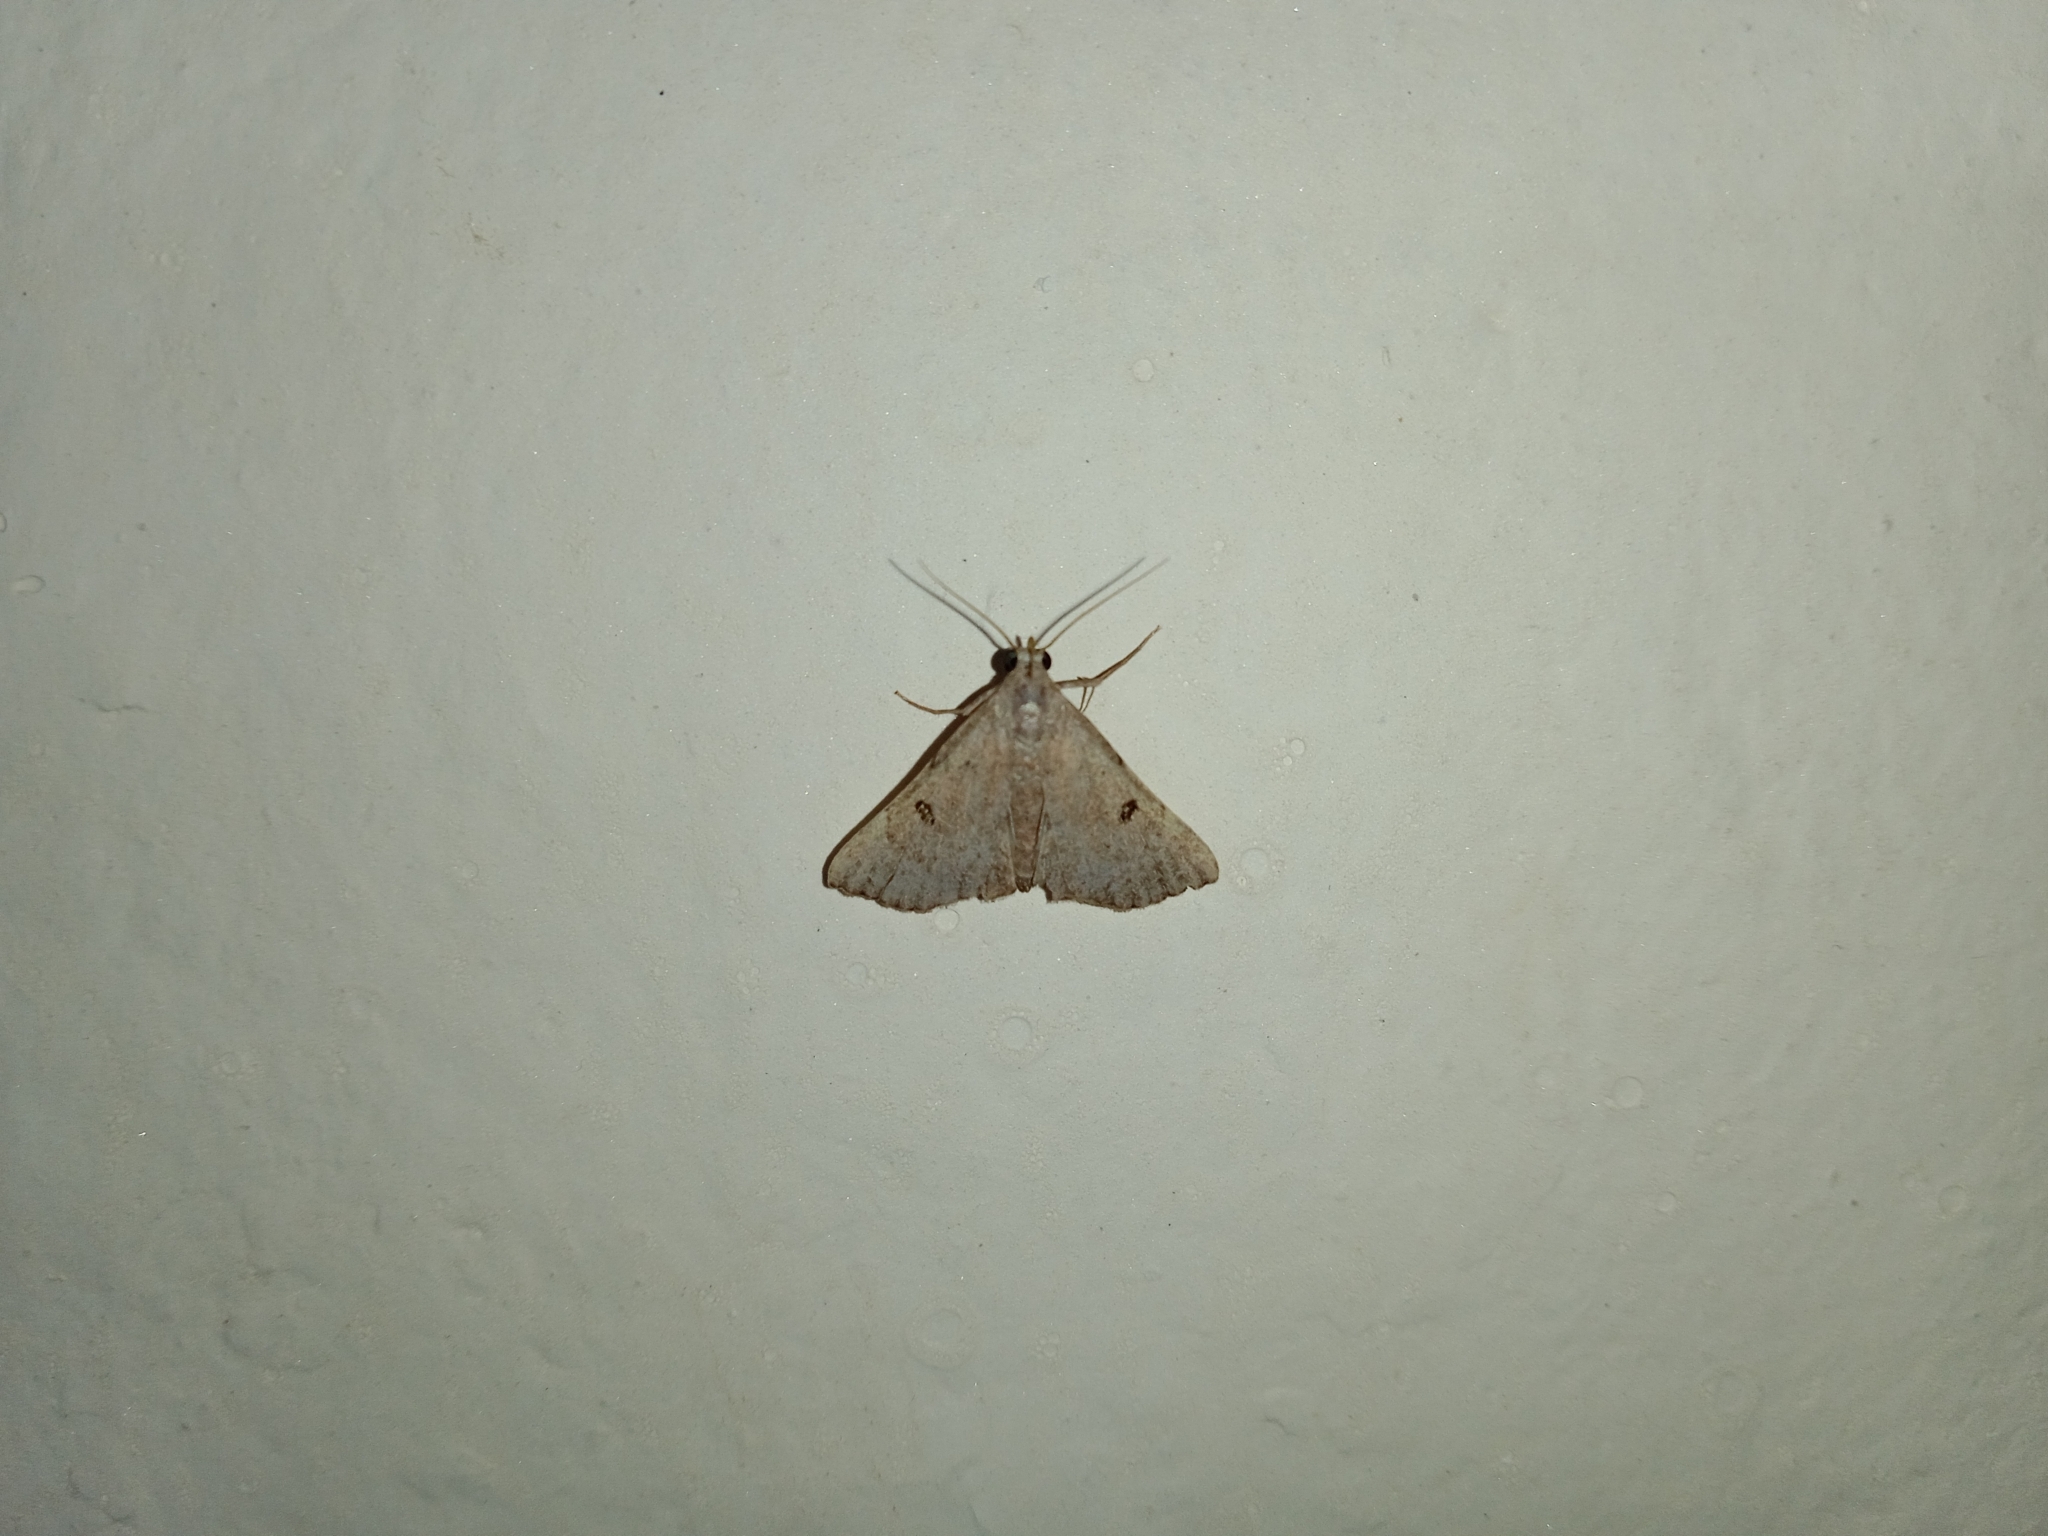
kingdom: Animalia
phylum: Arthropoda
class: Insecta
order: Lepidoptera
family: Erebidae
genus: Progonia
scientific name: Progonia oileusalis
